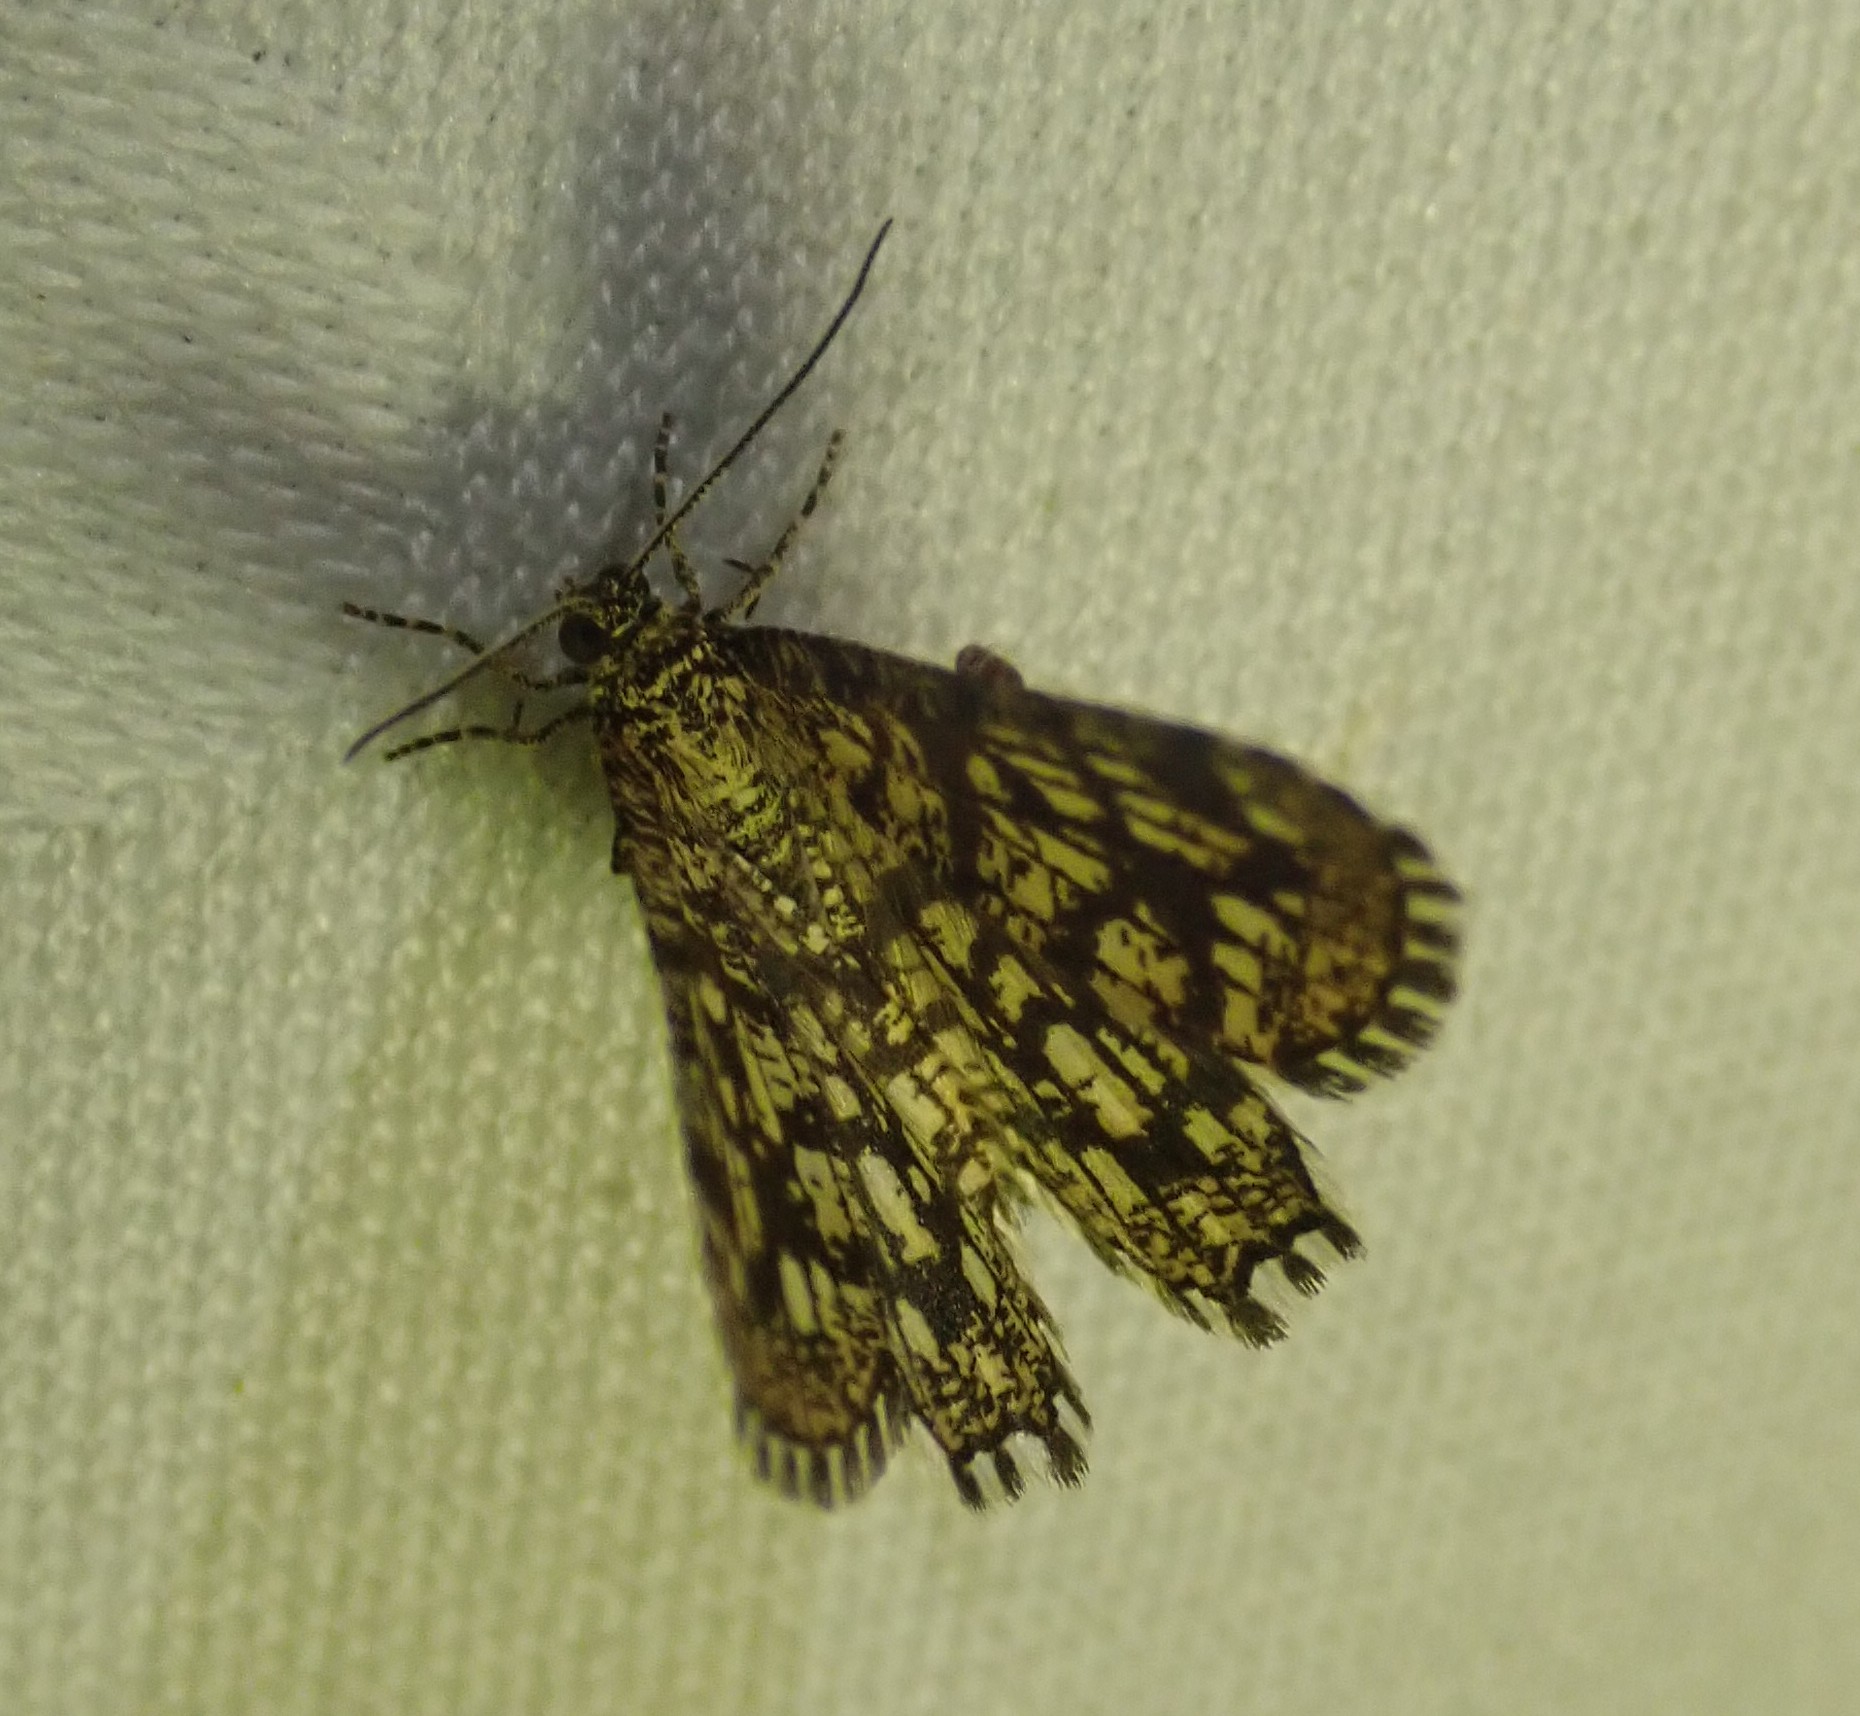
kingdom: Animalia
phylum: Arthropoda
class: Insecta
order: Lepidoptera
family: Geometridae
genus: Chiasmia
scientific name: Chiasmia clathrata
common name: Latticed heath
